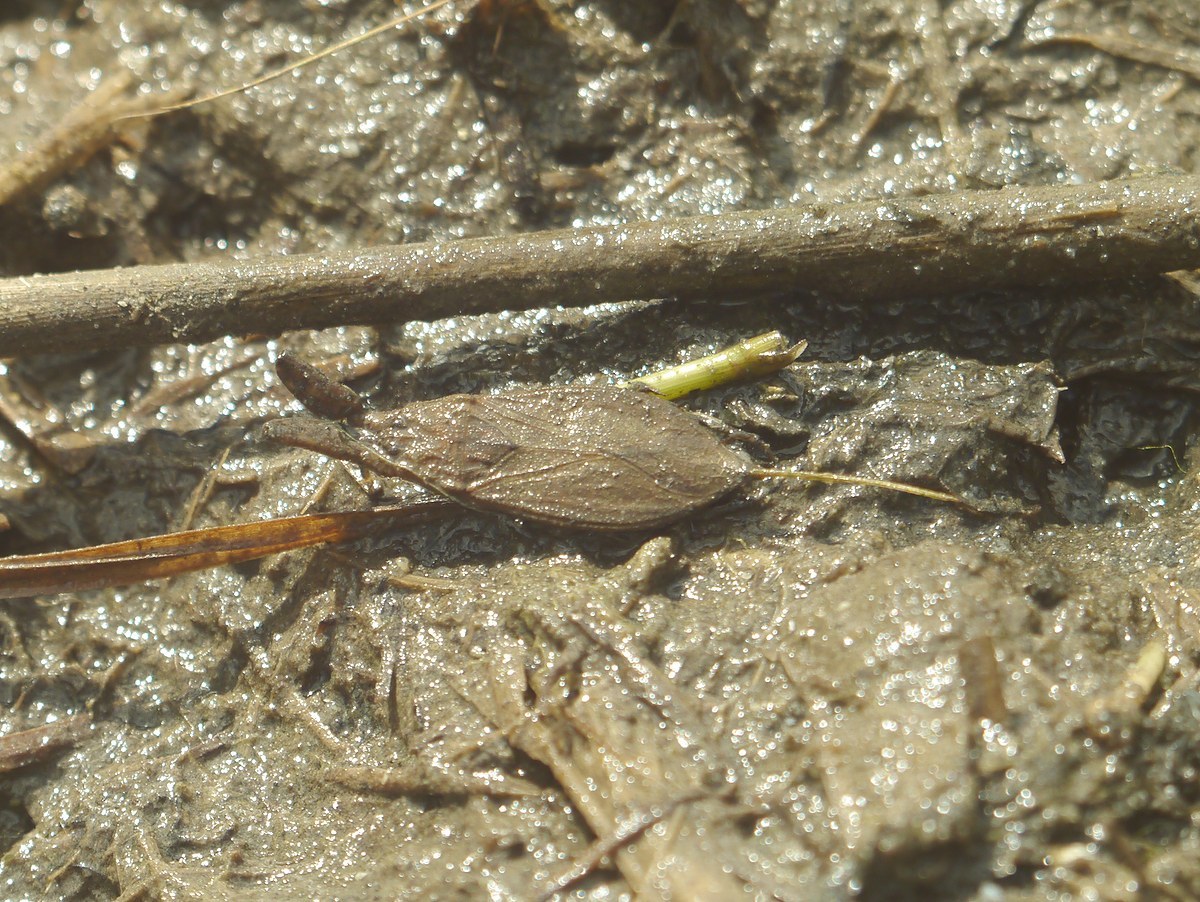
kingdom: Animalia
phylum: Arthropoda
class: Insecta
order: Hemiptera
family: Nepidae
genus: Nepa
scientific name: Nepa cinerea
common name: Water scorpion
